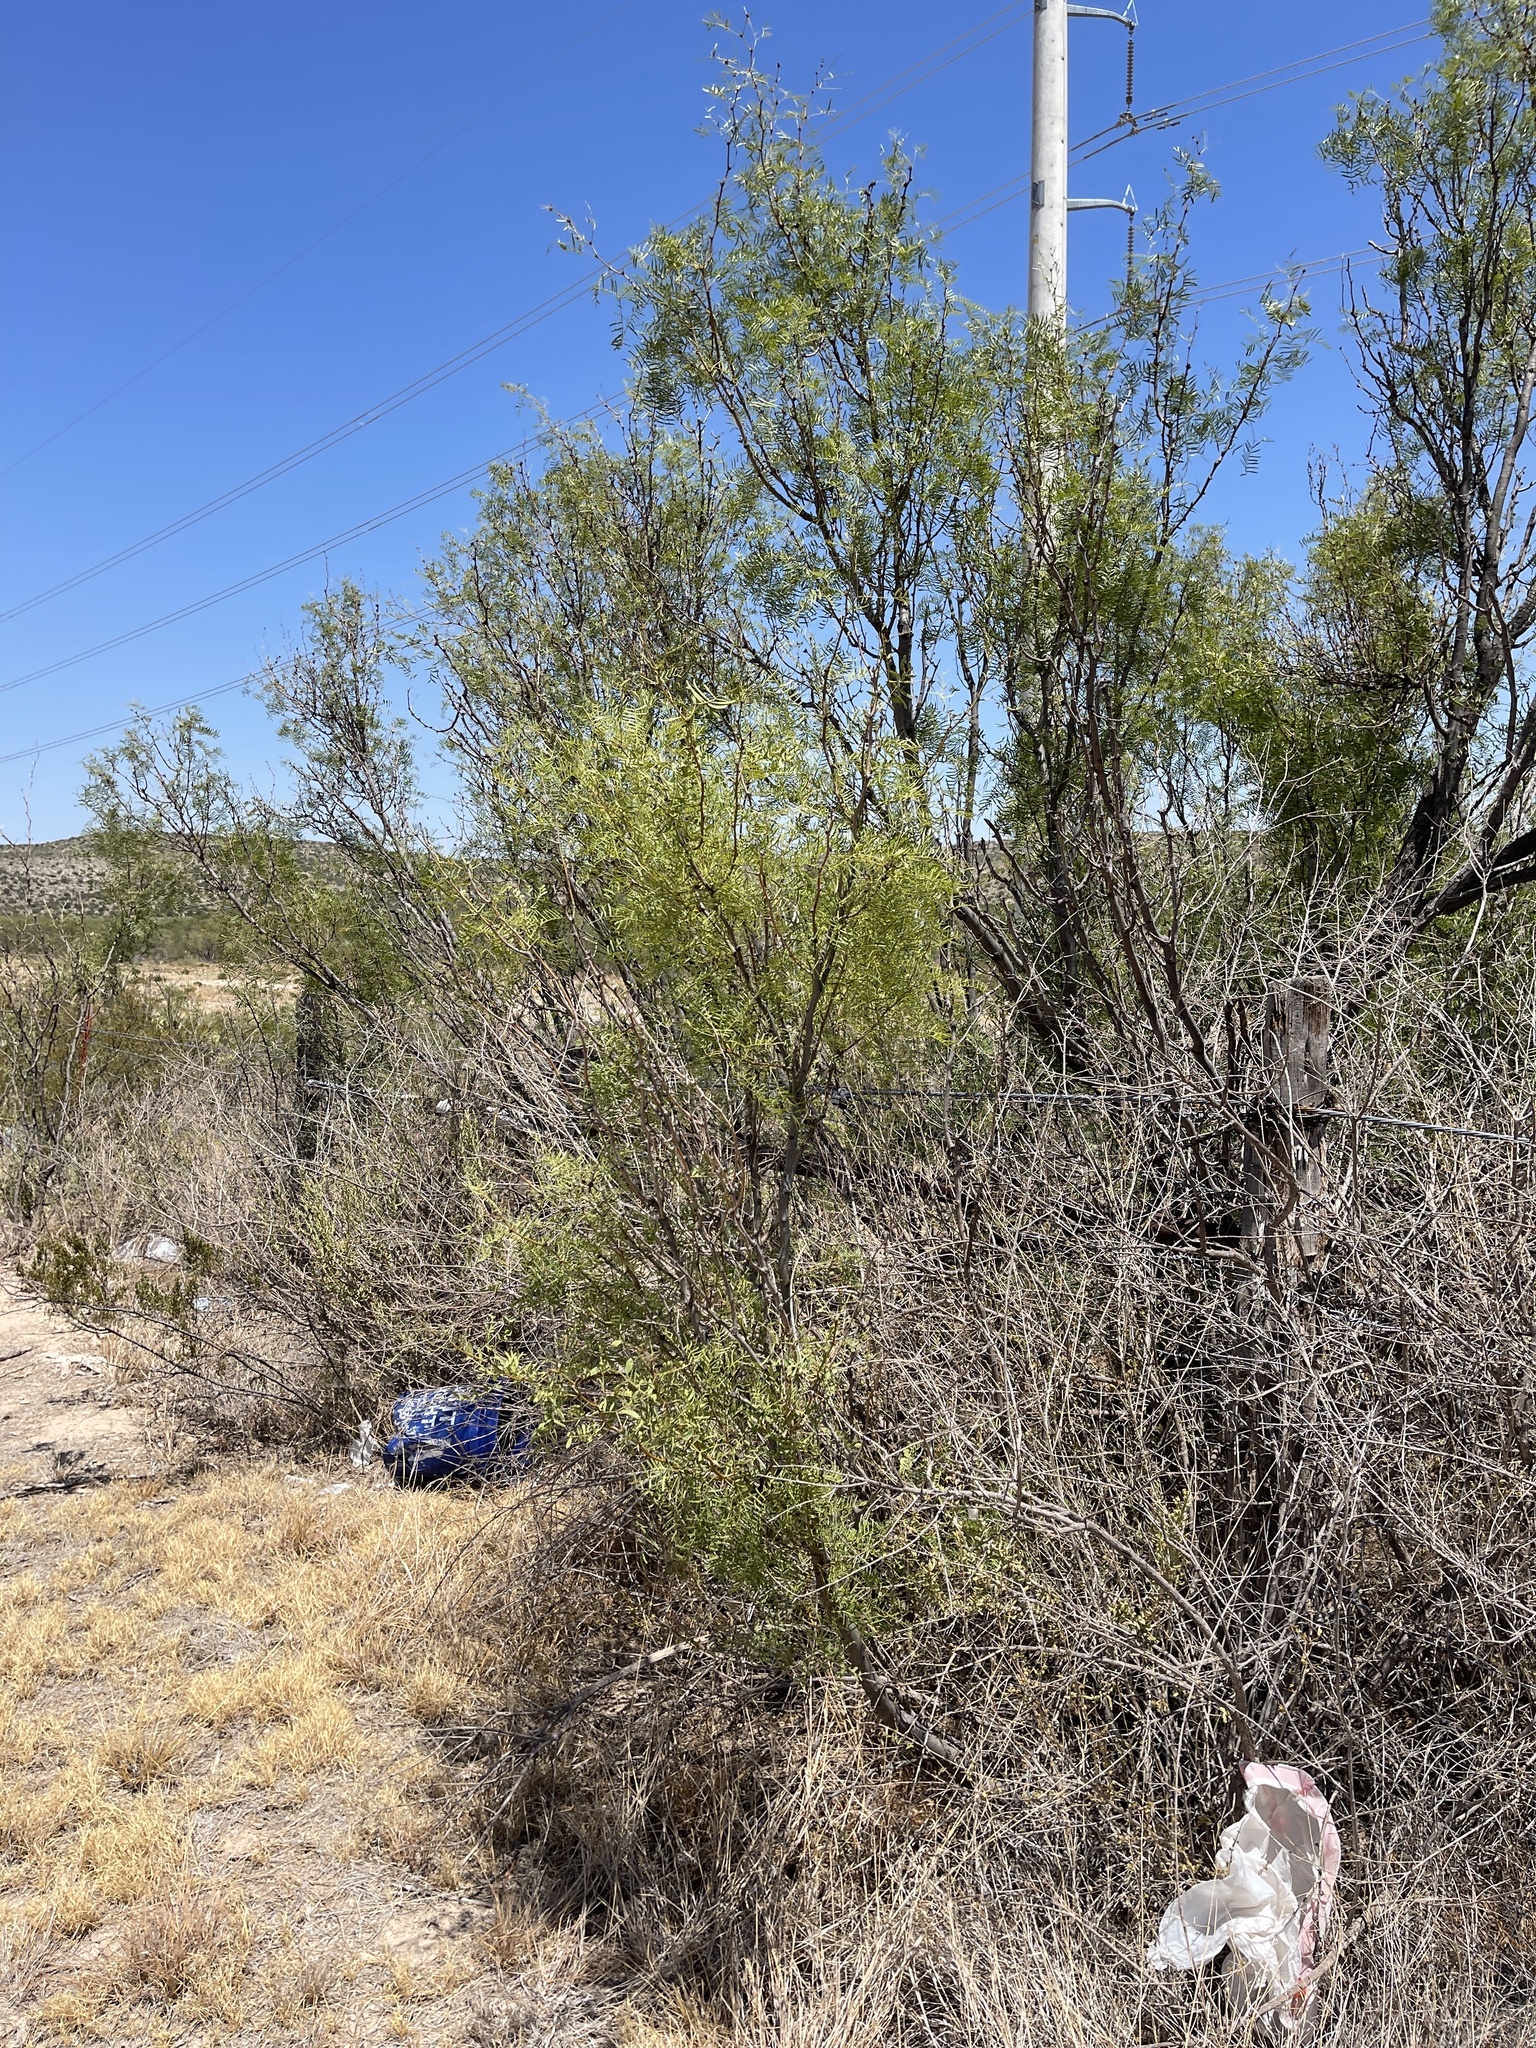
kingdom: Plantae
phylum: Tracheophyta
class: Magnoliopsida
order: Fabales
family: Fabaceae
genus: Prosopis
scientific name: Prosopis glandulosa
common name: Honey mesquite
